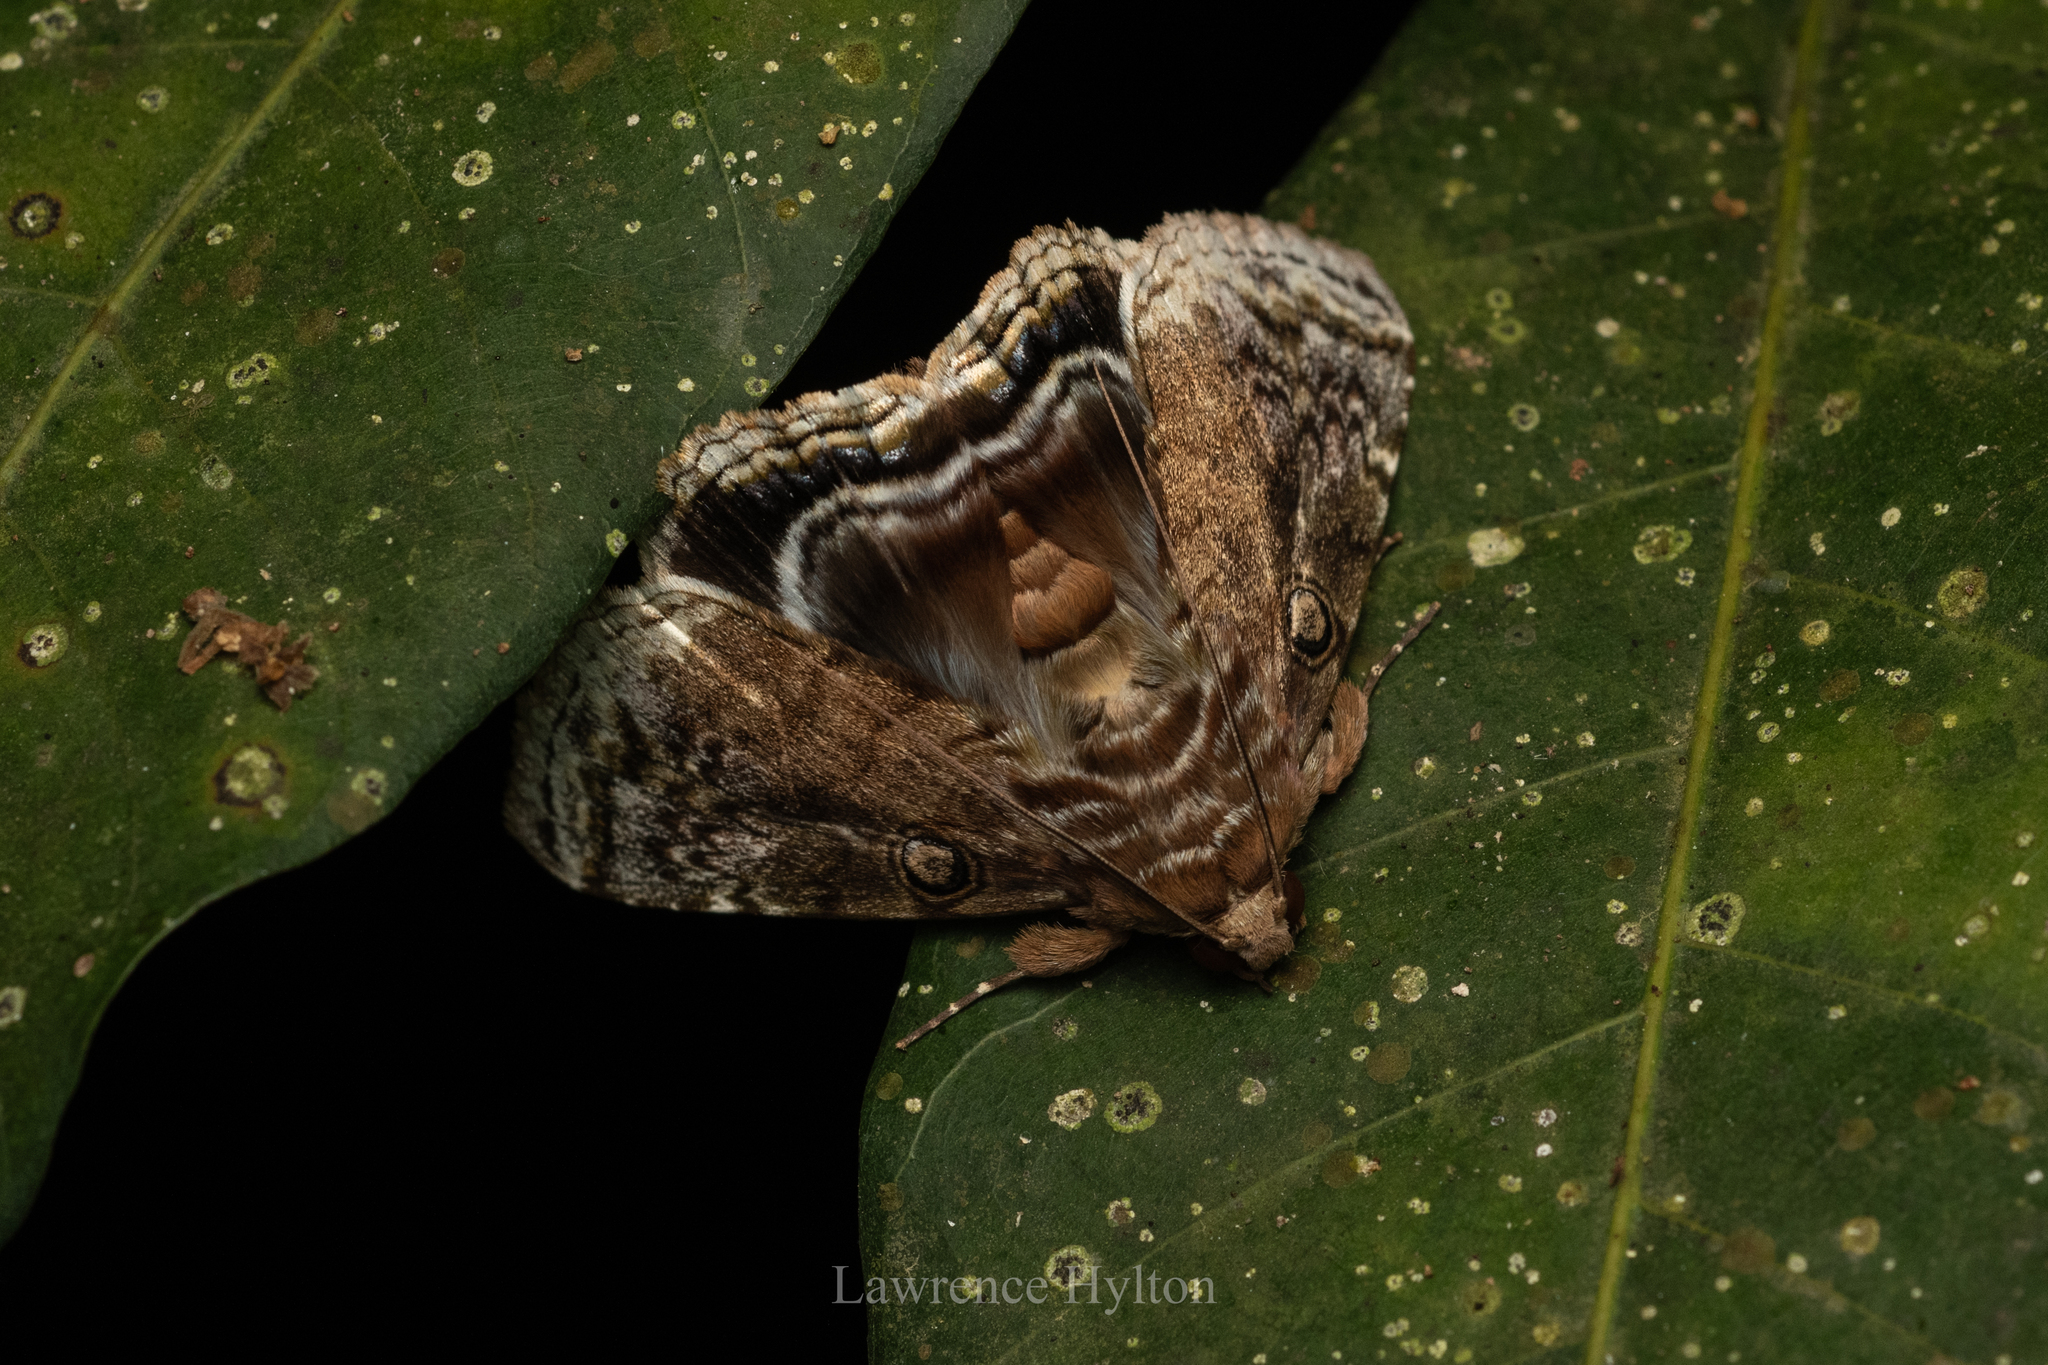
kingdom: Animalia
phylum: Arthropoda
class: Insecta
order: Lepidoptera
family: Erebidae
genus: Cyclodes
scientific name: Cyclodes omma
